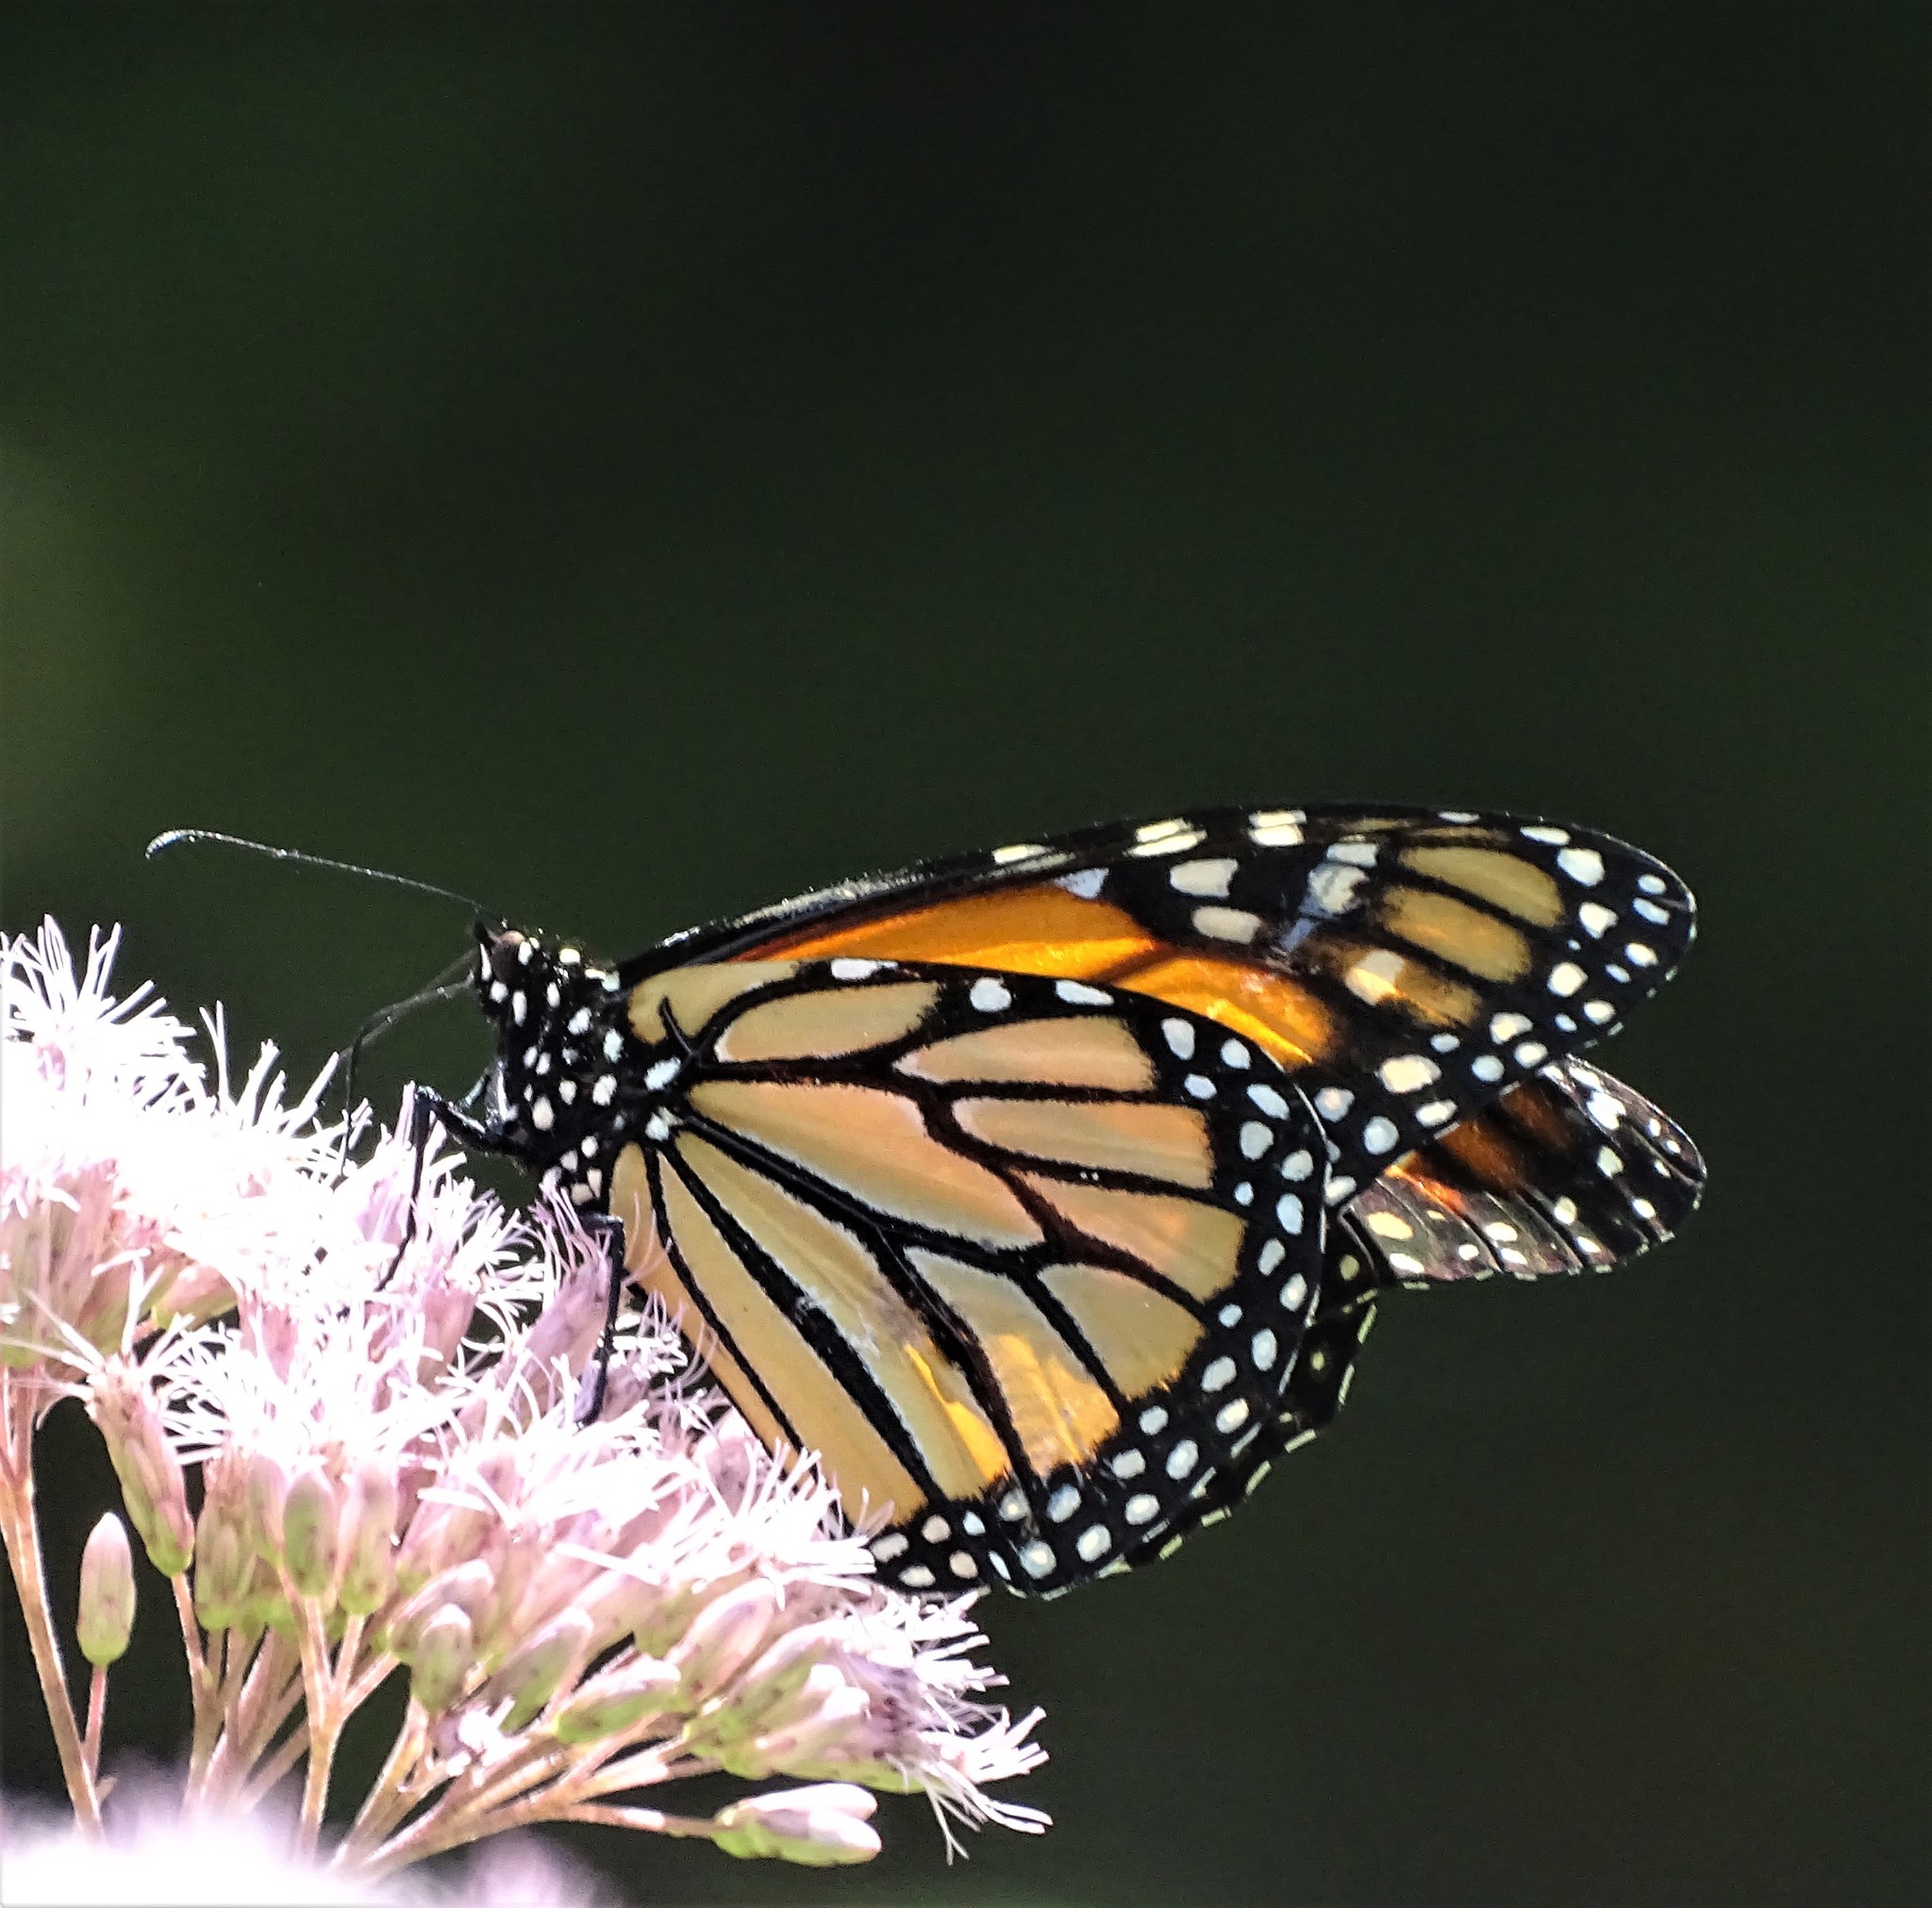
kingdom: Animalia
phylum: Arthropoda
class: Insecta
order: Lepidoptera
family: Nymphalidae
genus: Danaus
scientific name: Danaus plexippus
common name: Monarch
